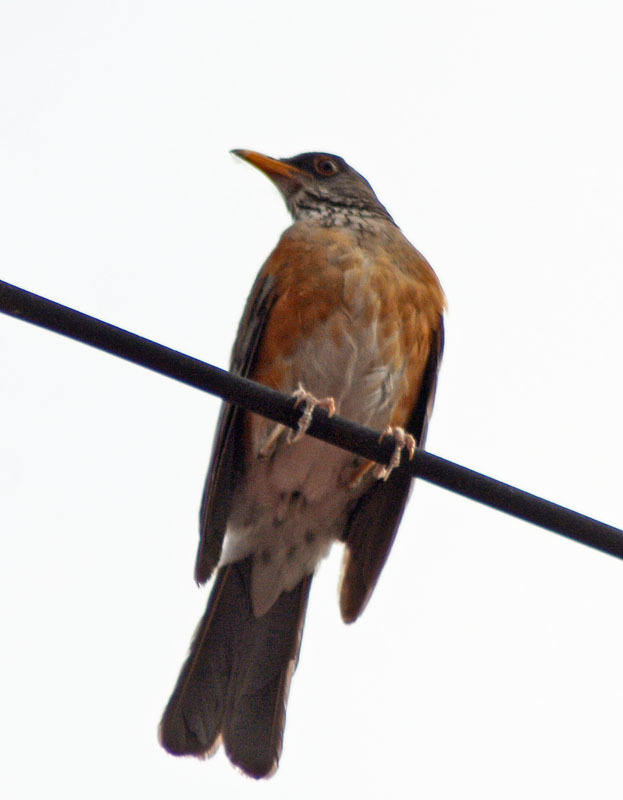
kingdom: Animalia
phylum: Chordata
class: Aves
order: Passeriformes
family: Turdidae
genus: Turdus
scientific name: Turdus rufopalliatus
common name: Rufous-backed robin
